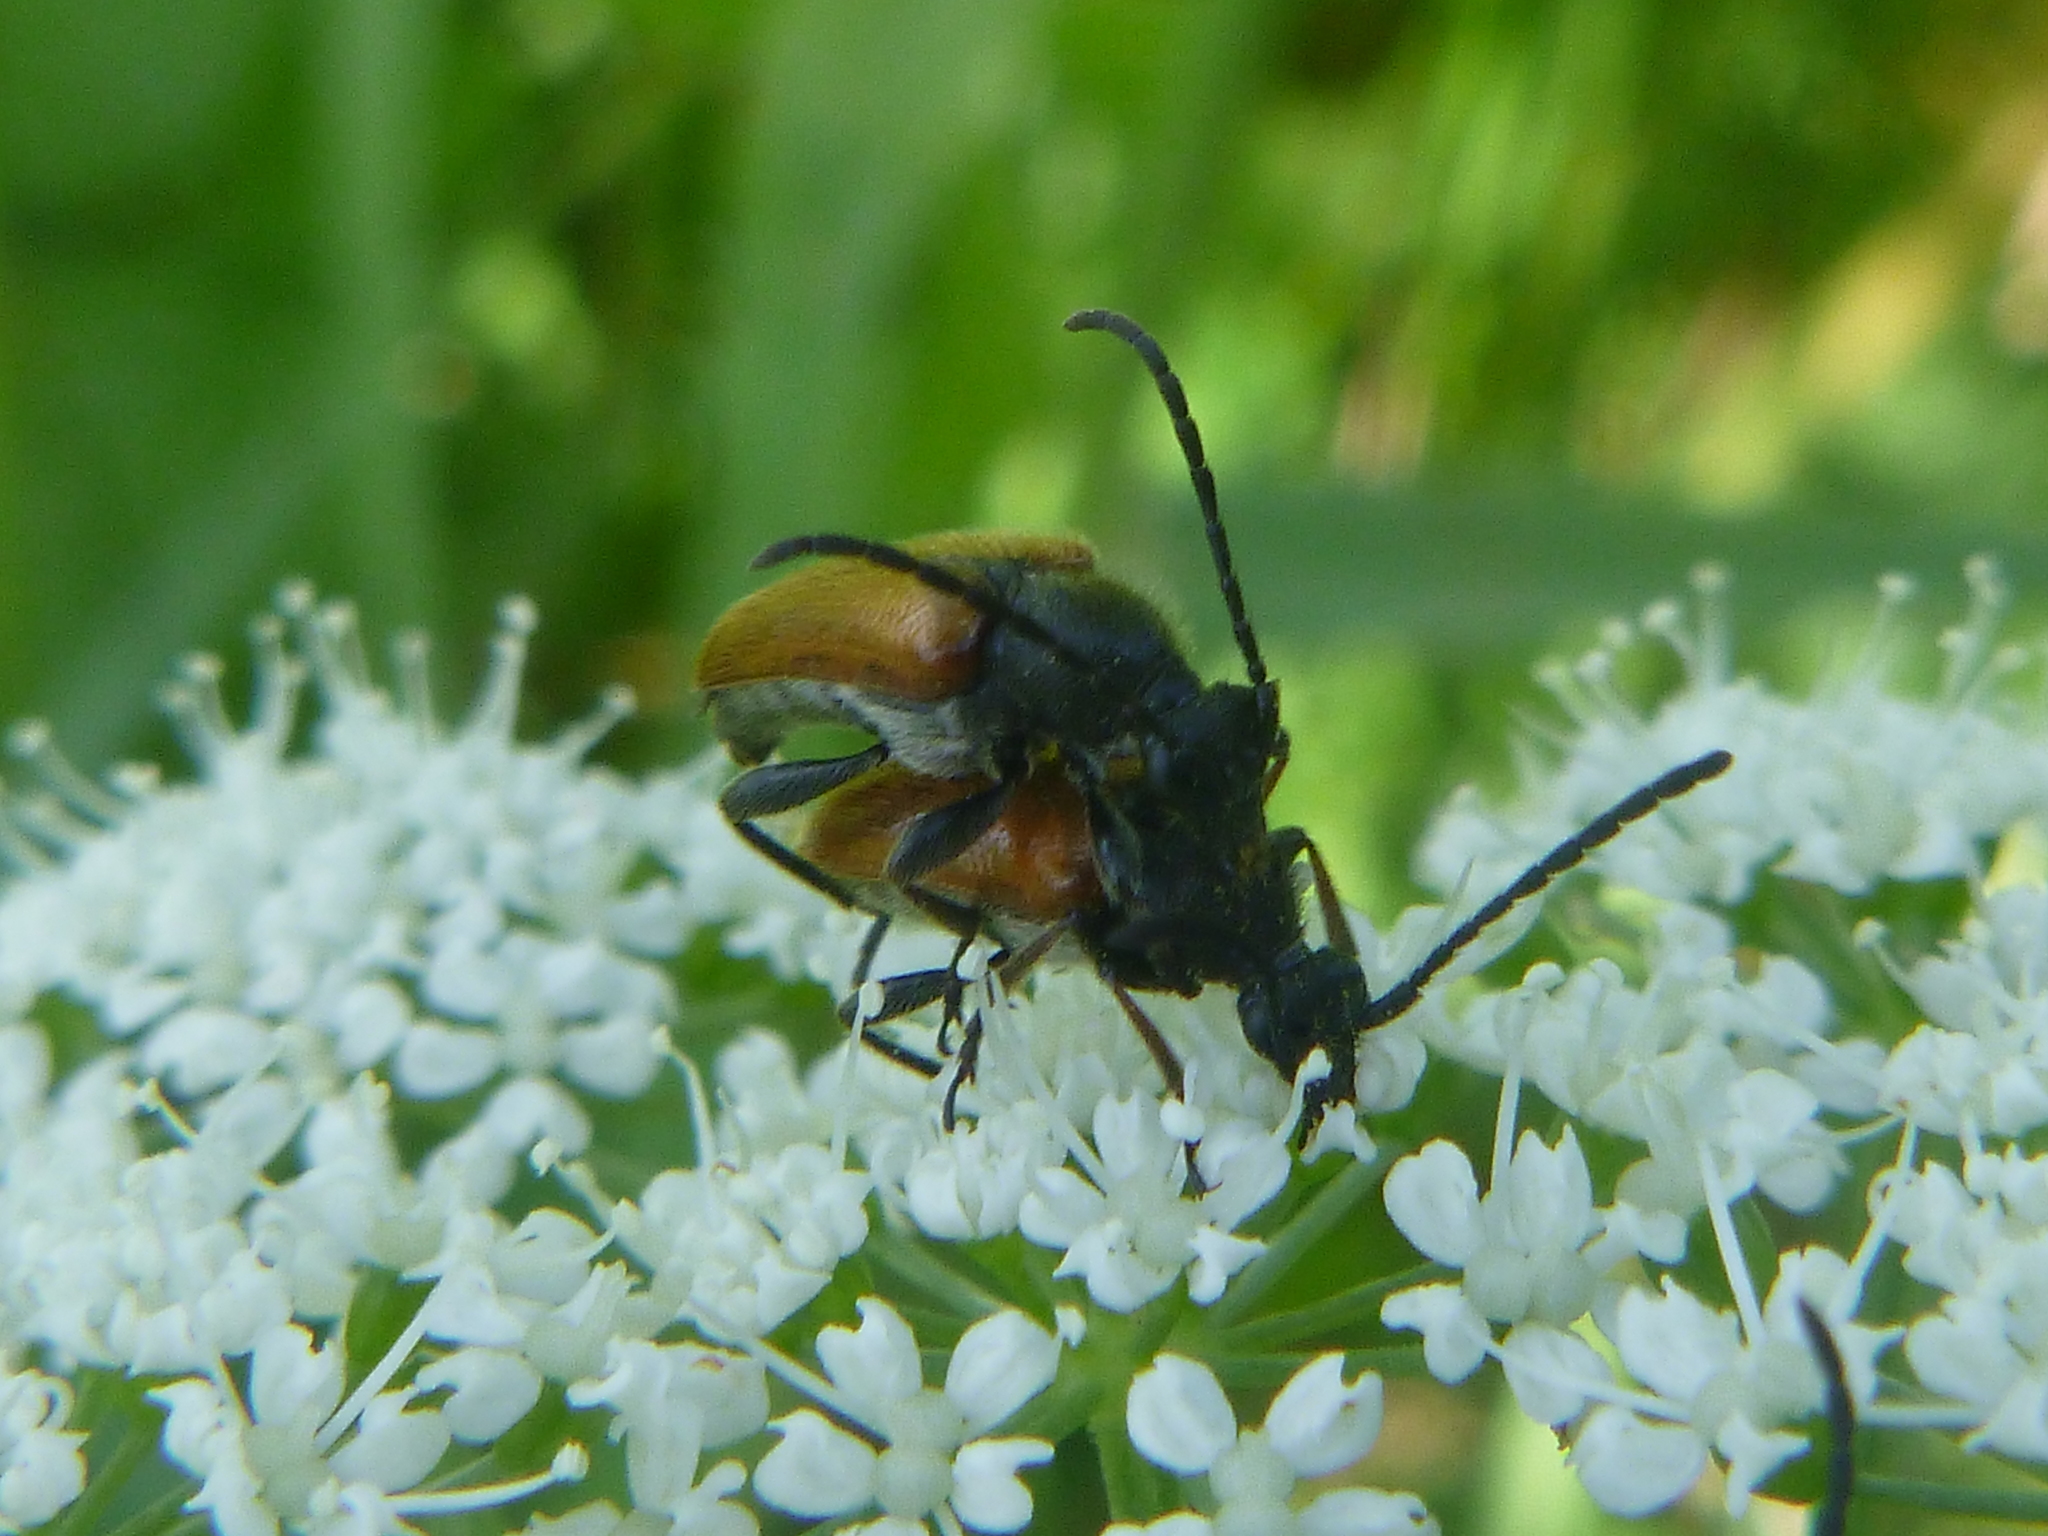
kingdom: Animalia
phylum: Arthropoda
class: Insecta
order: Coleoptera
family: Cerambycidae
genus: Pseudovadonia
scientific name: Pseudovadonia livida
